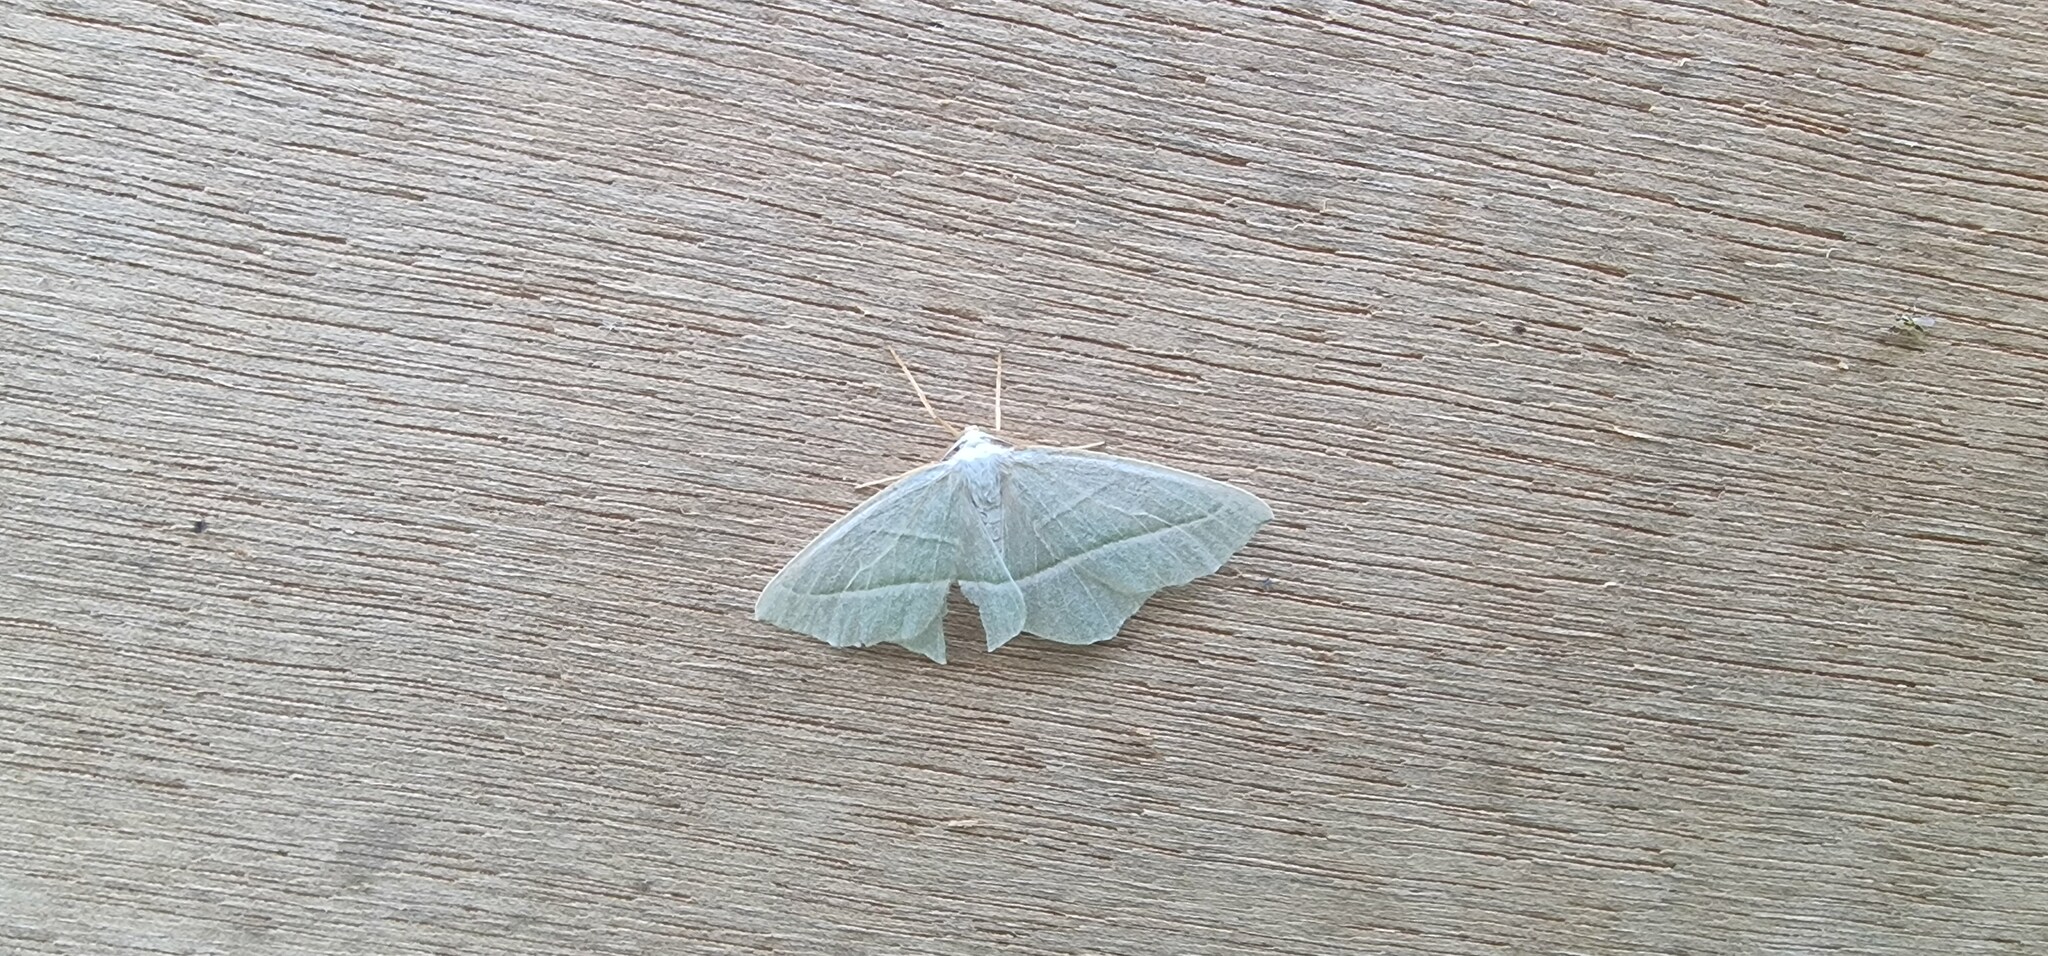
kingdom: Animalia
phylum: Arthropoda
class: Insecta
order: Lepidoptera
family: Geometridae
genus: Campaea
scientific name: Campaea margaritaria
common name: Light emerald
